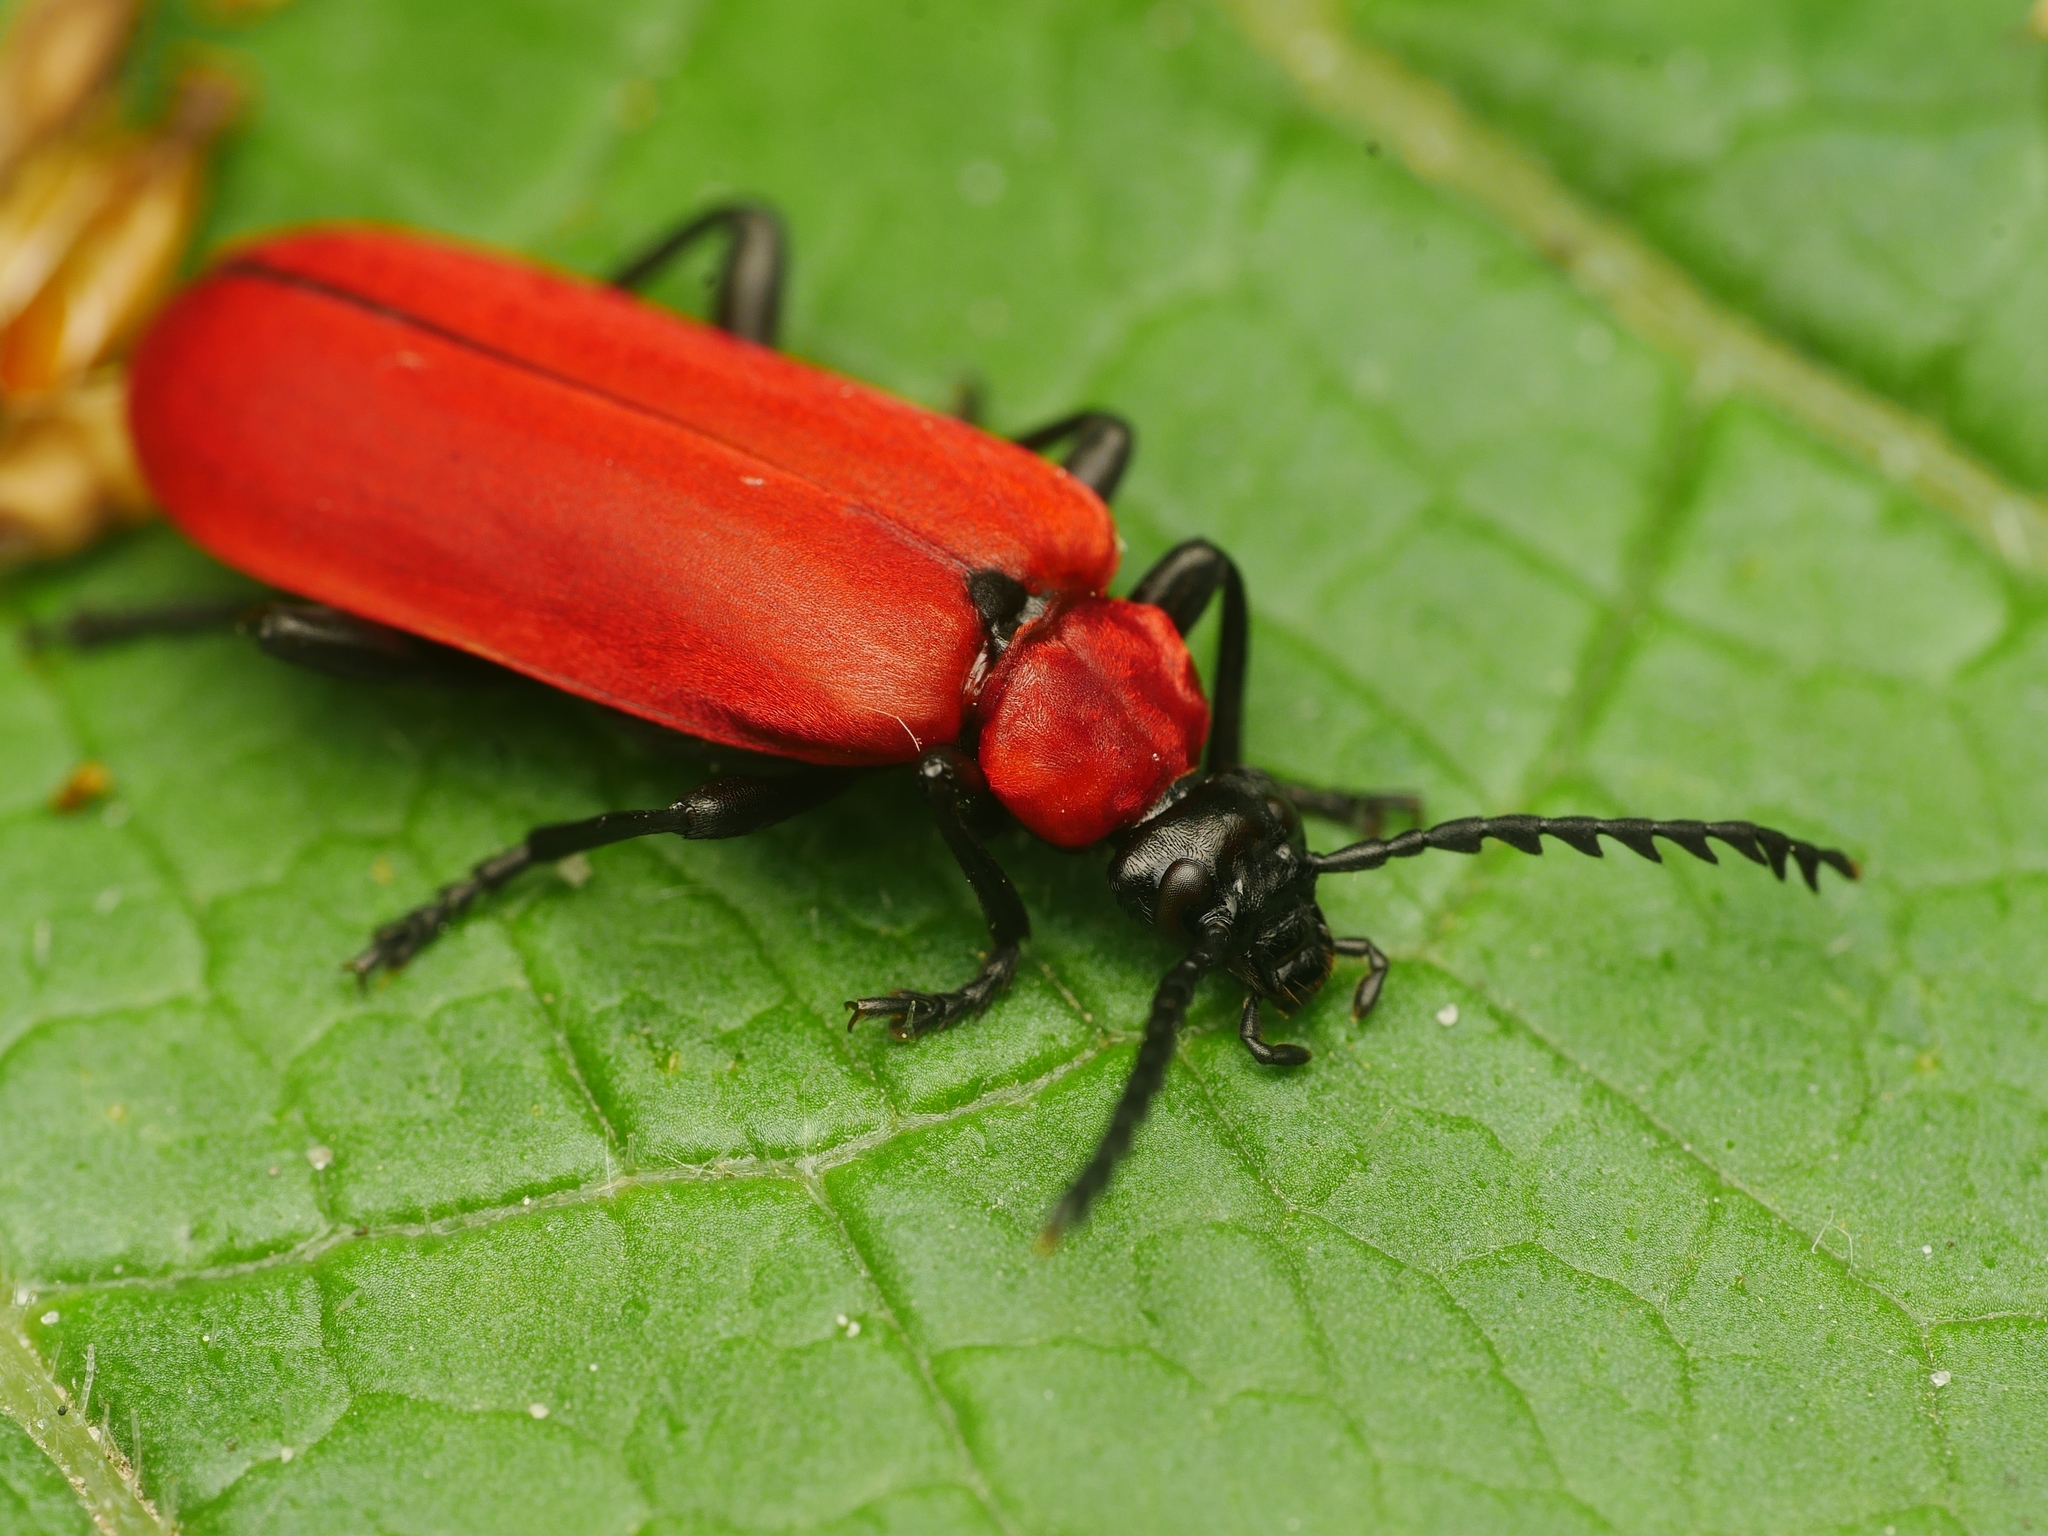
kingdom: Animalia
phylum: Arthropoda
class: Insecta
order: Coleoptera
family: Pyrochroidae
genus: Pyrochroa
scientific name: Pyrochroa coccinea
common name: Black-headed cardinal beetle
